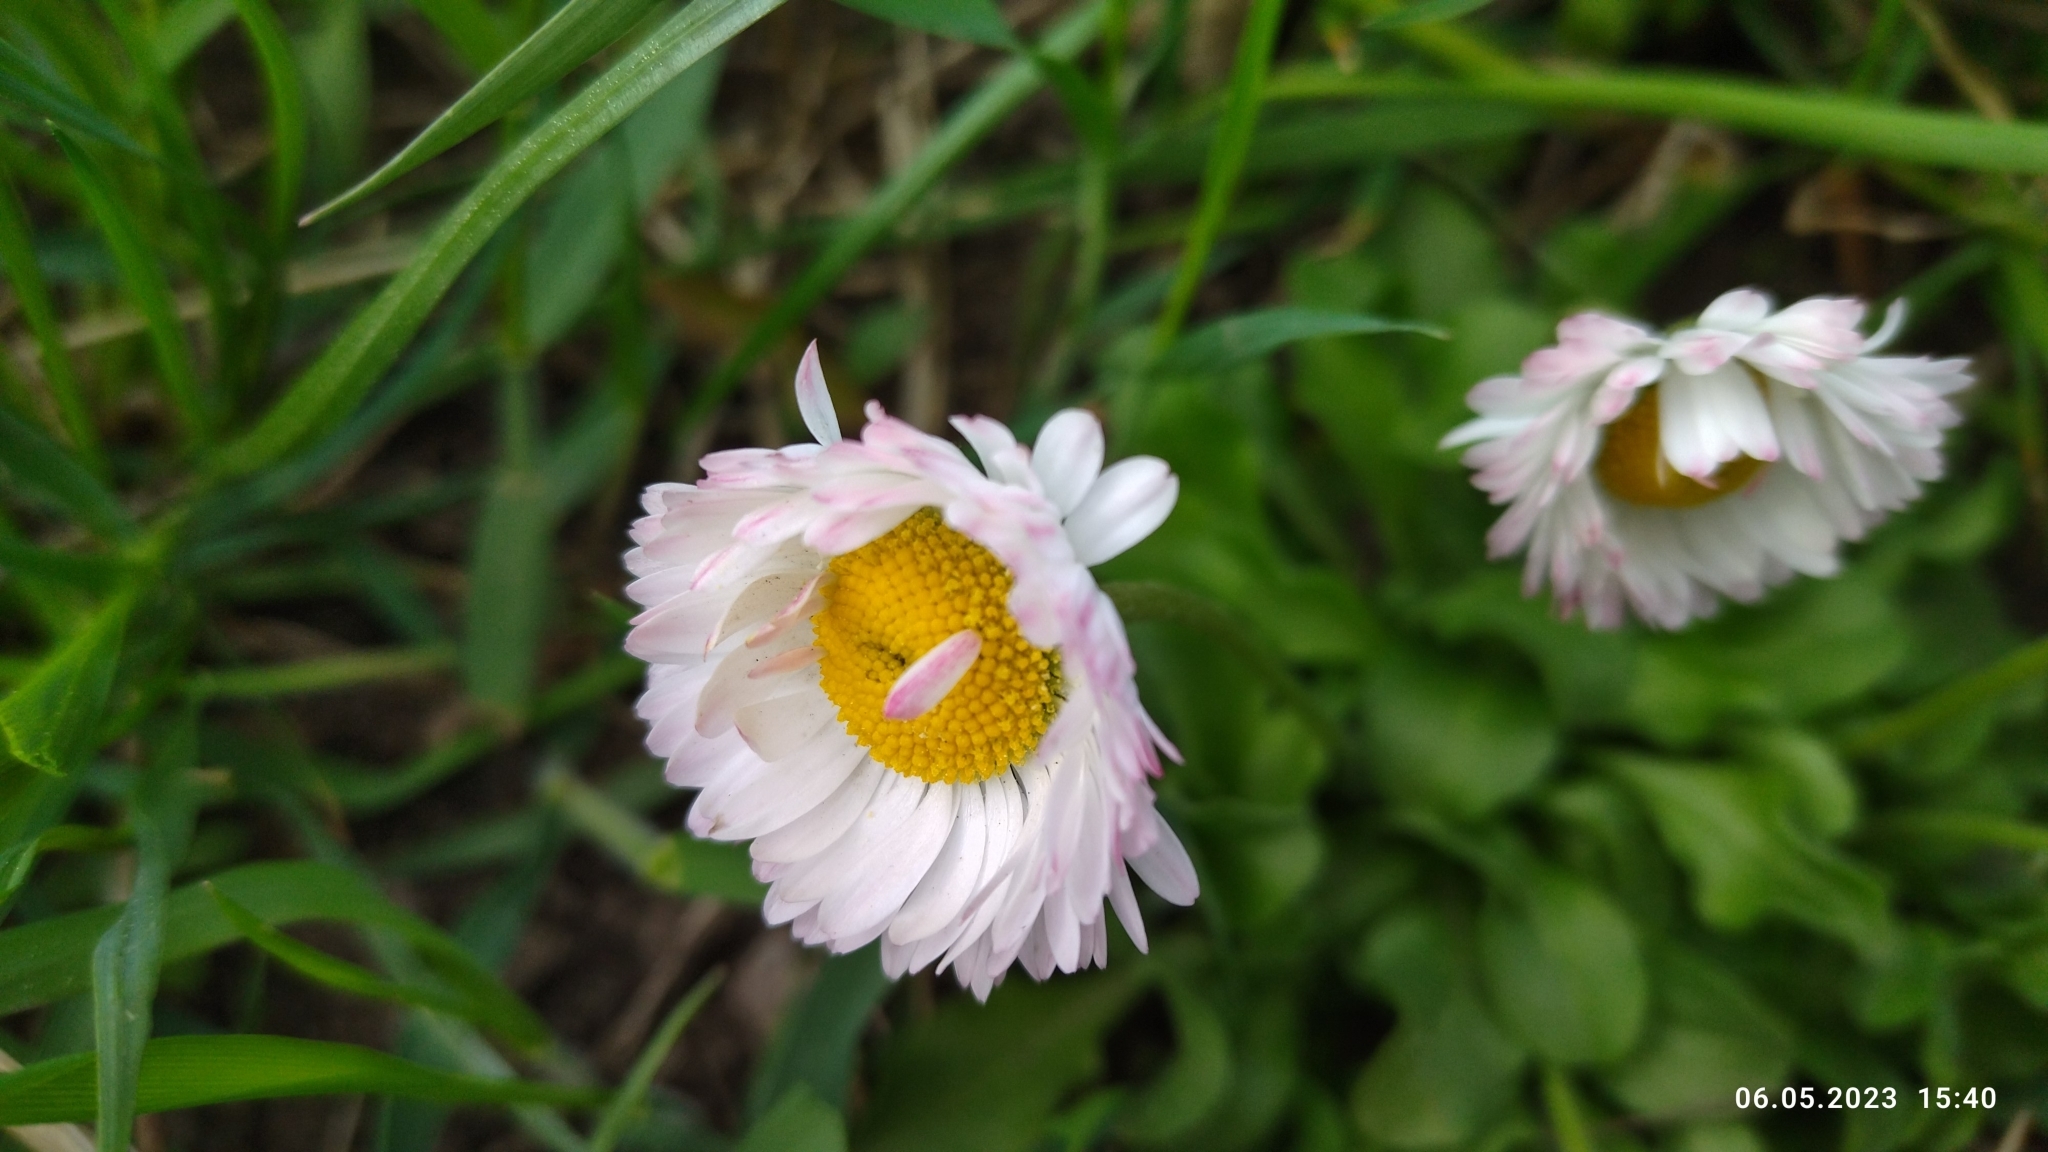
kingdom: Plantae
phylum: Tracheophyta
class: Magnoliopsida
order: Asterales
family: Asteraceae
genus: Bellis
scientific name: Bellis perennis
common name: Lawndaisy
